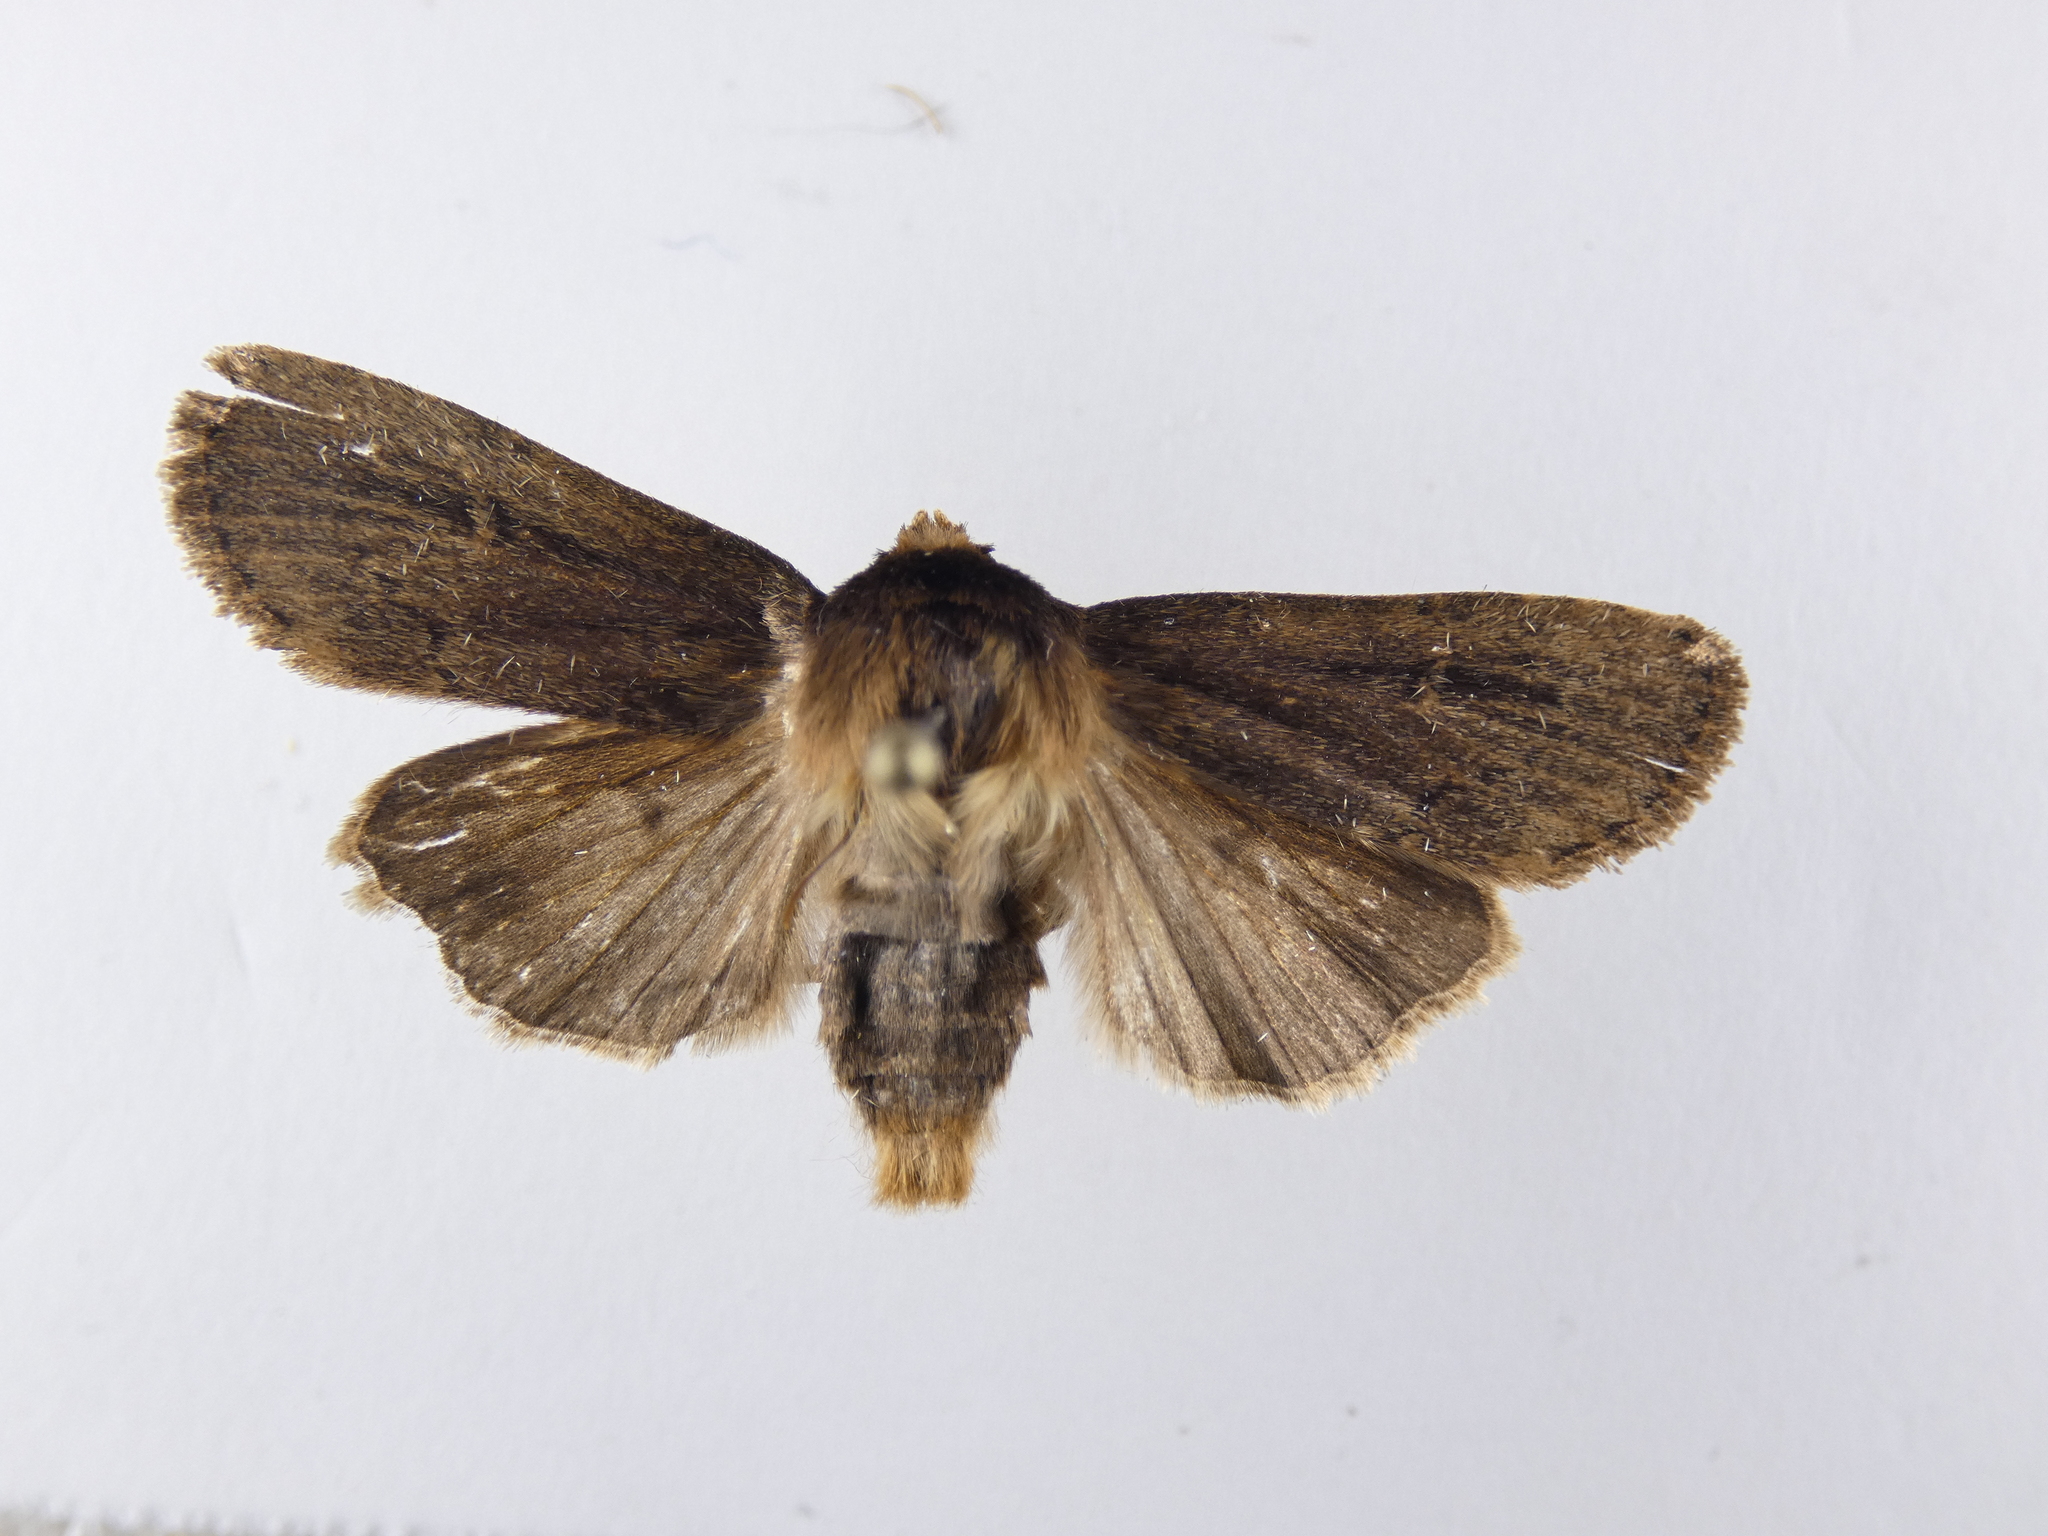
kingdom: Animalia
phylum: Arthropoda
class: Insecta
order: Lepidoptera
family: Noctuidae
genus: Bityla
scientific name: Bityla defigurata
